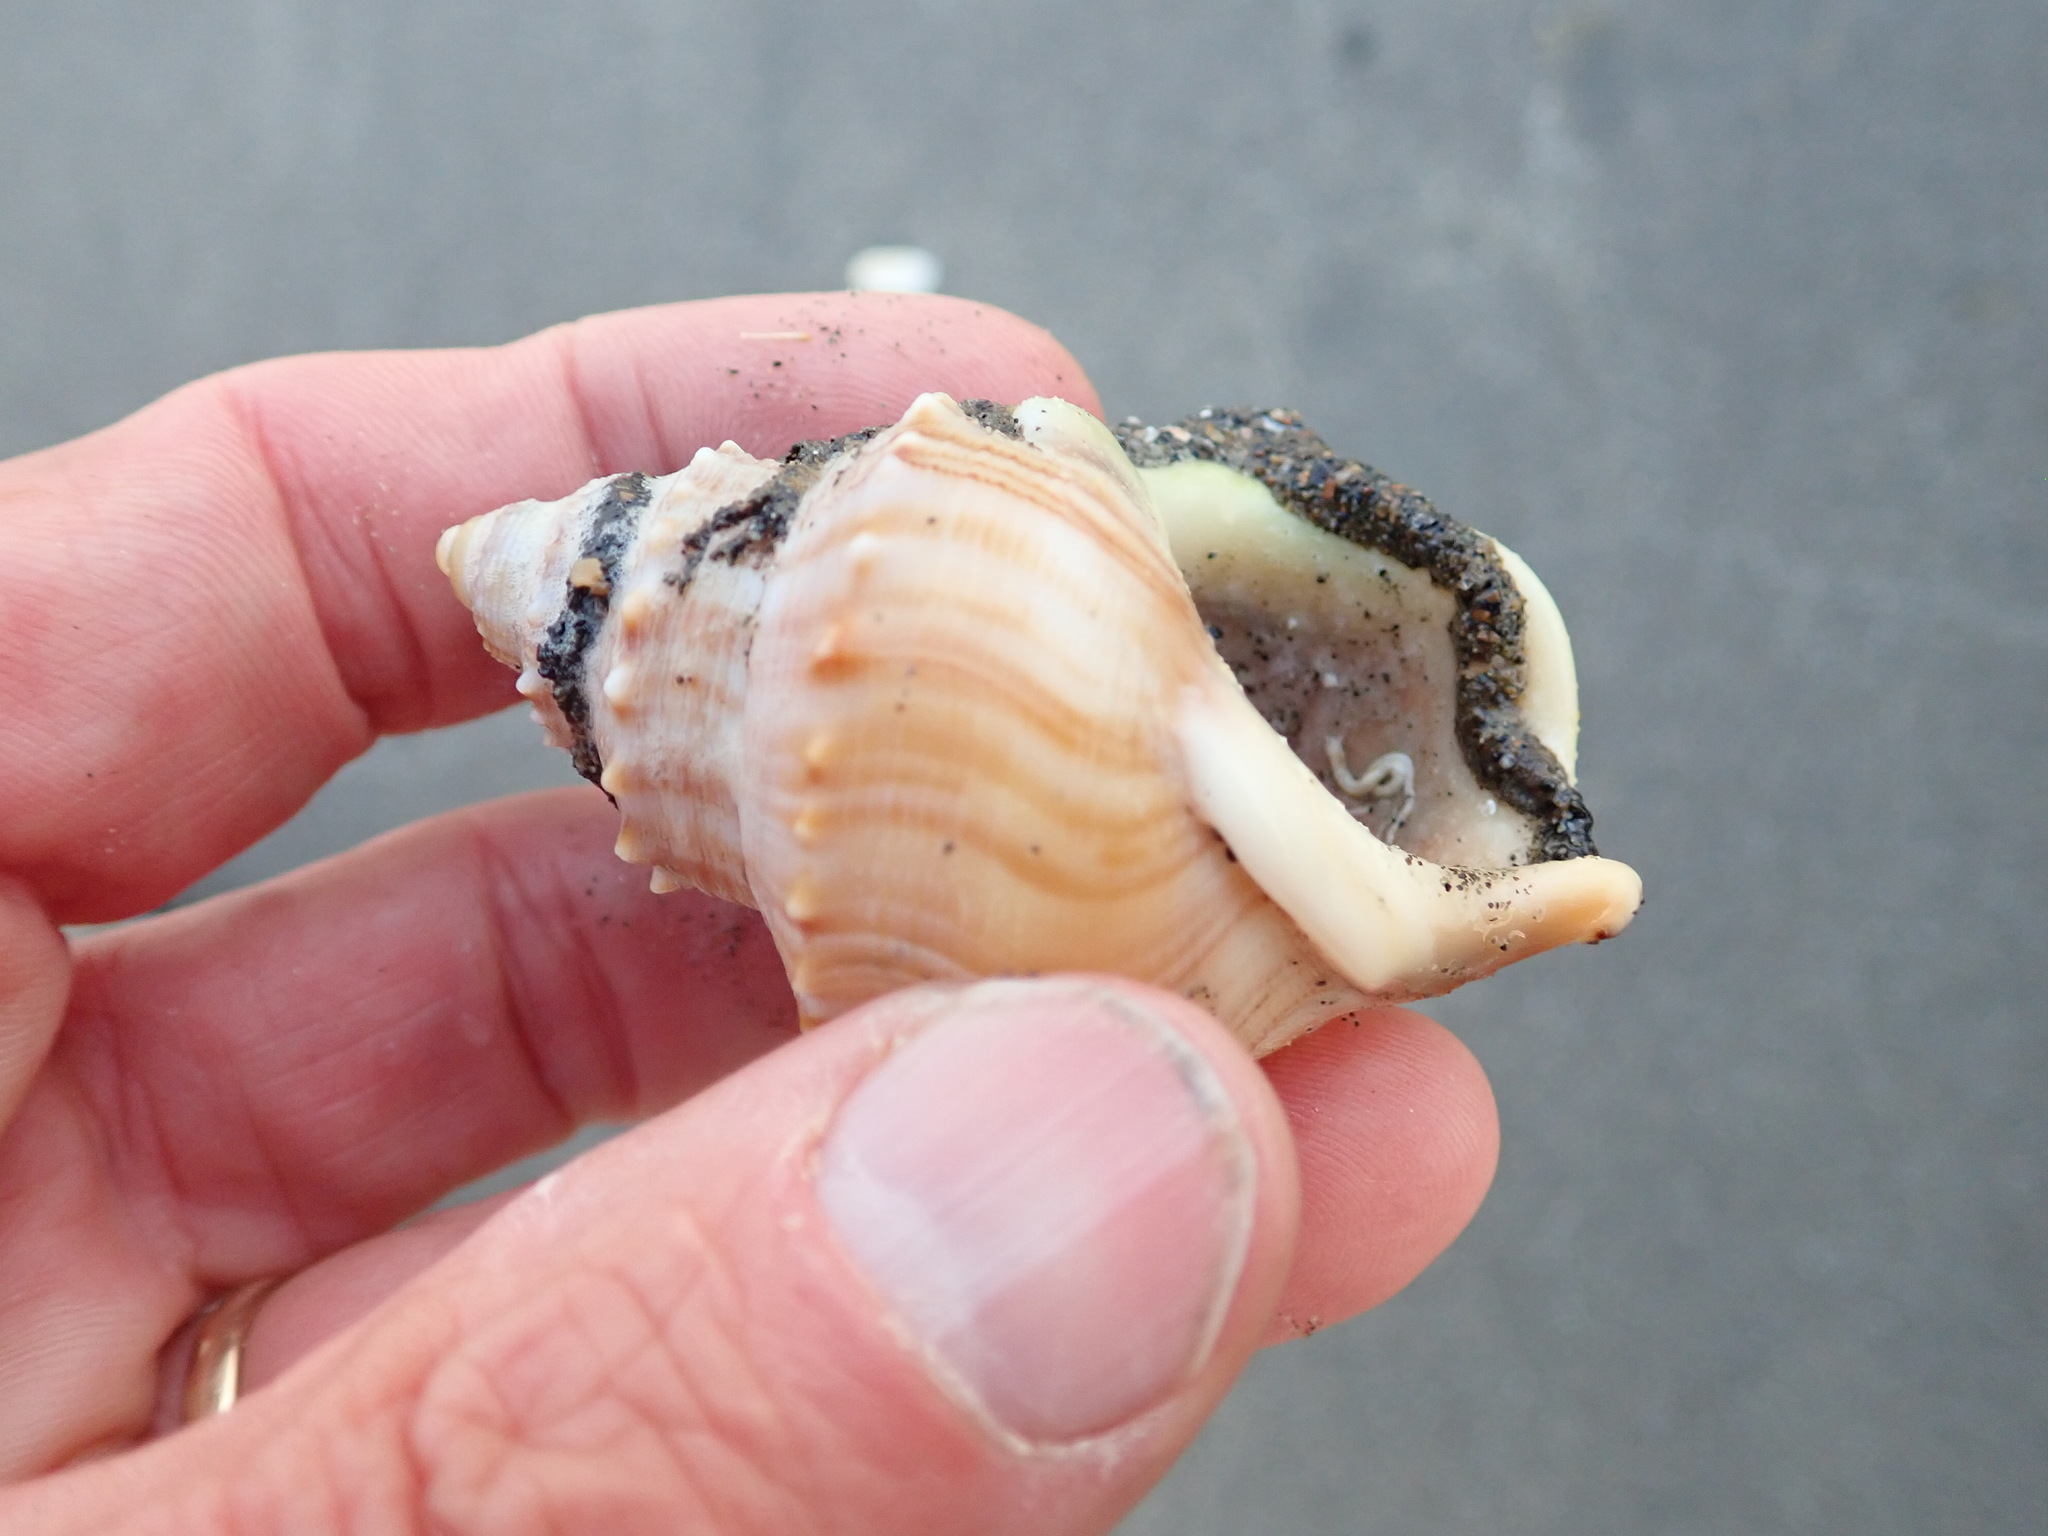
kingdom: Animalia
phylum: Annelida
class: Polychaeta
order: Sabellida
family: Sabellariidae
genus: Neosabellaria
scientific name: Neosabellaria kaiparaensis
